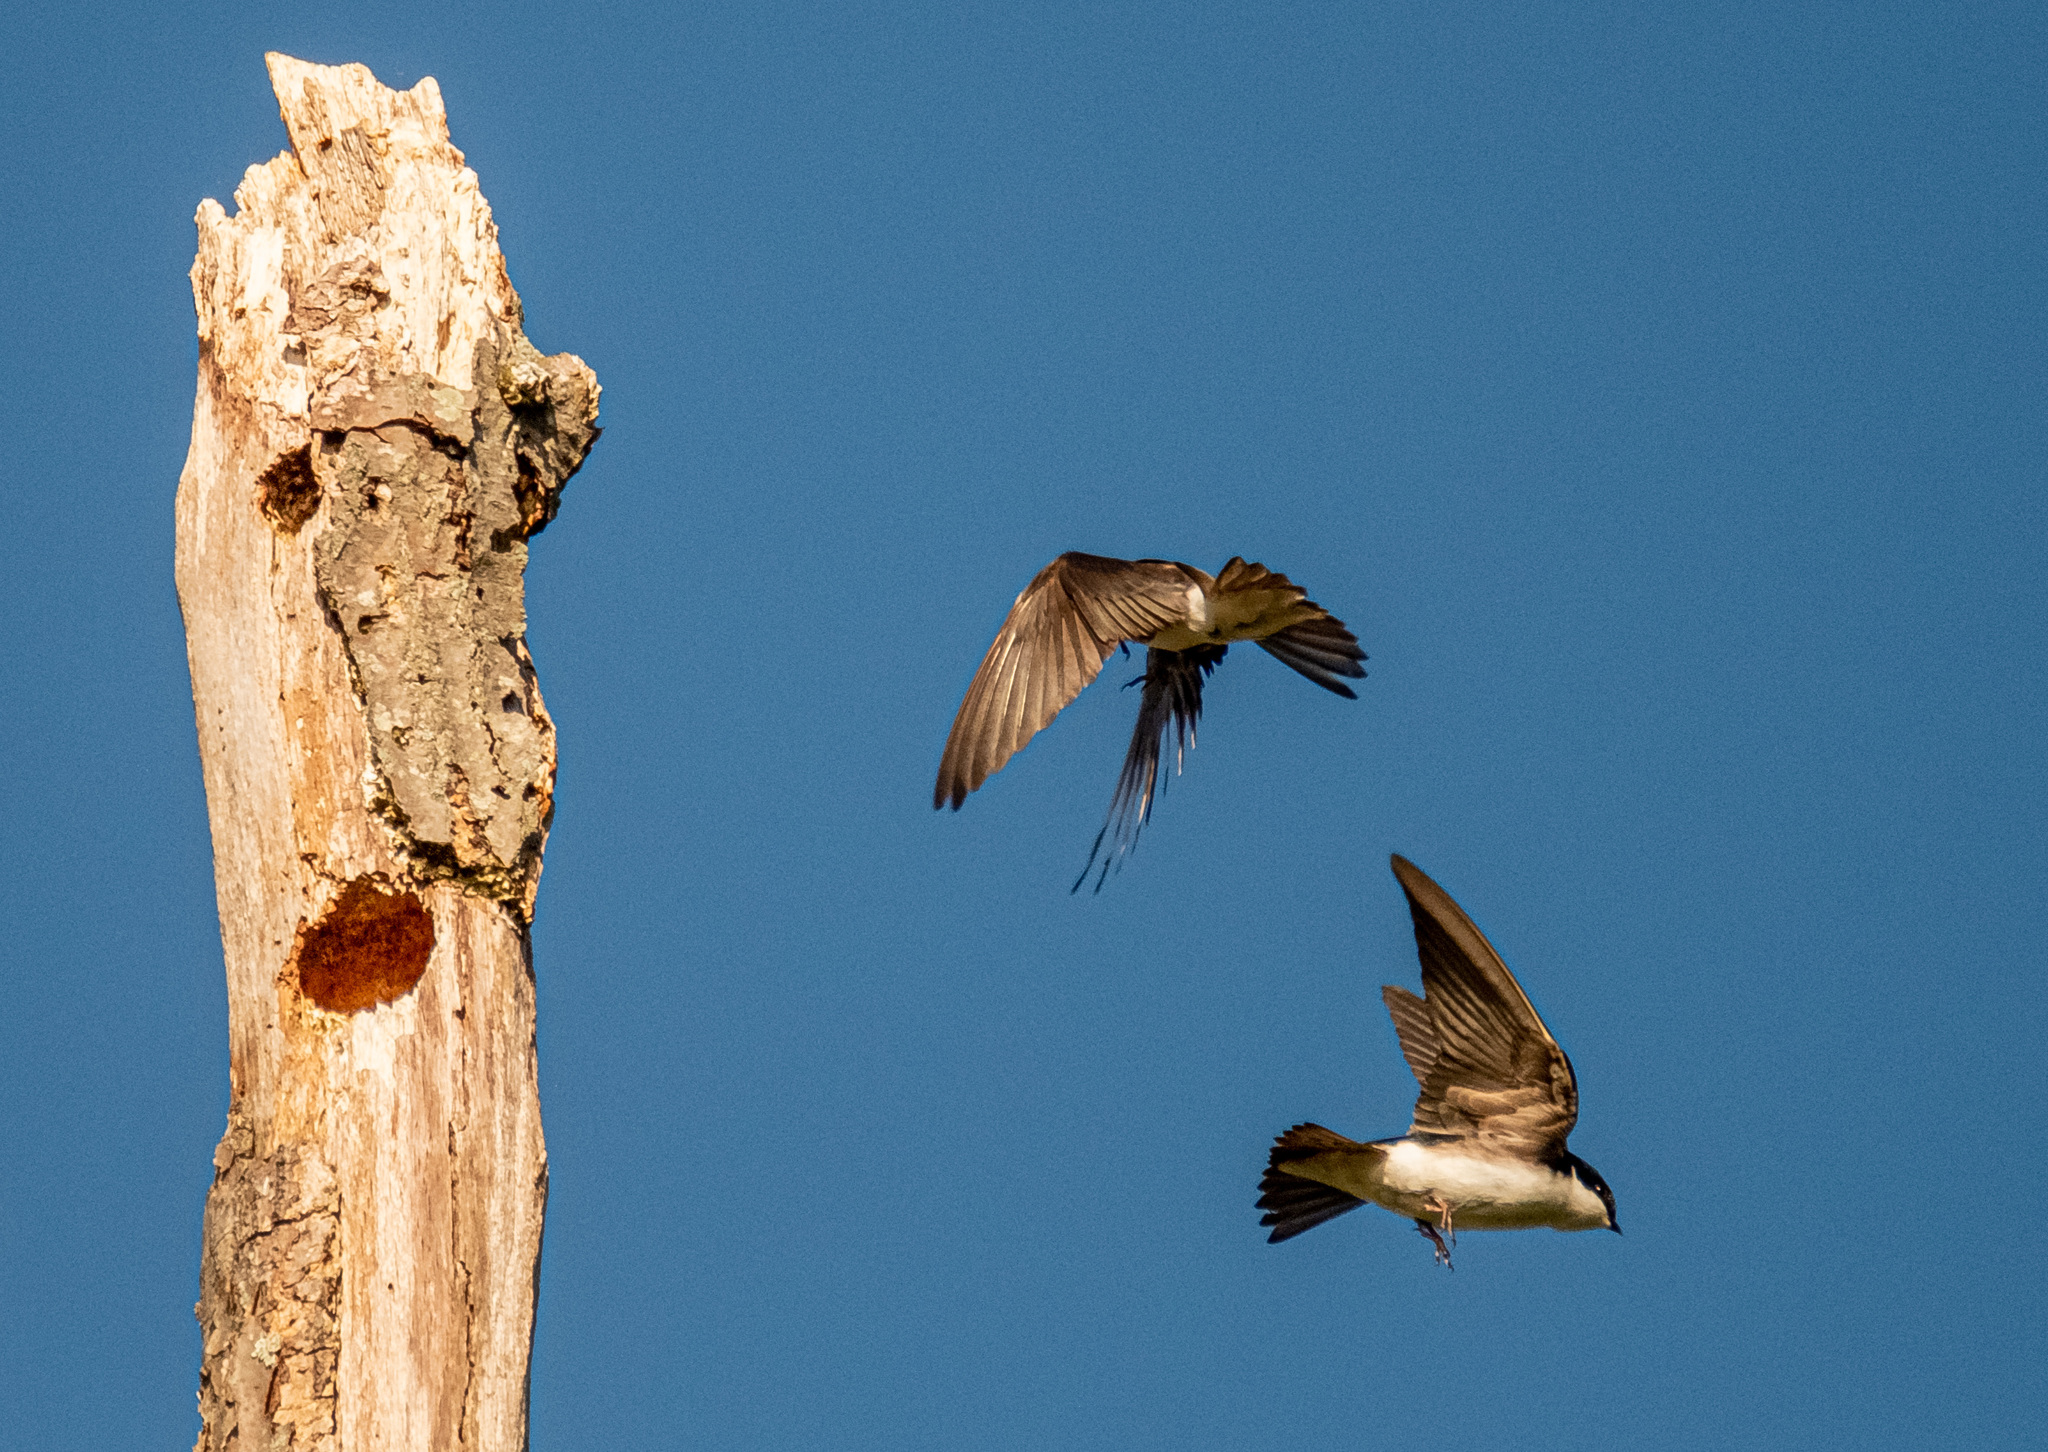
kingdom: Animalia
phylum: Chordata
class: Aves
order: Passeriformes
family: Hirundinidae
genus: Tachycineta
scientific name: Tachycineta bicolor
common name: Tree swallow
